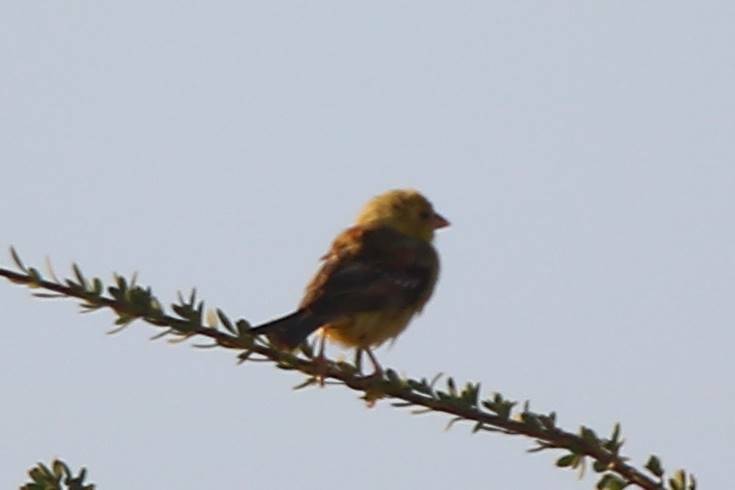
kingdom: Animalia
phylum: Chordata
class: Aves
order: Passeriformes
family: Passeridae
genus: Passer
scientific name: Passer luteus
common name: Sudan golden sparrow
